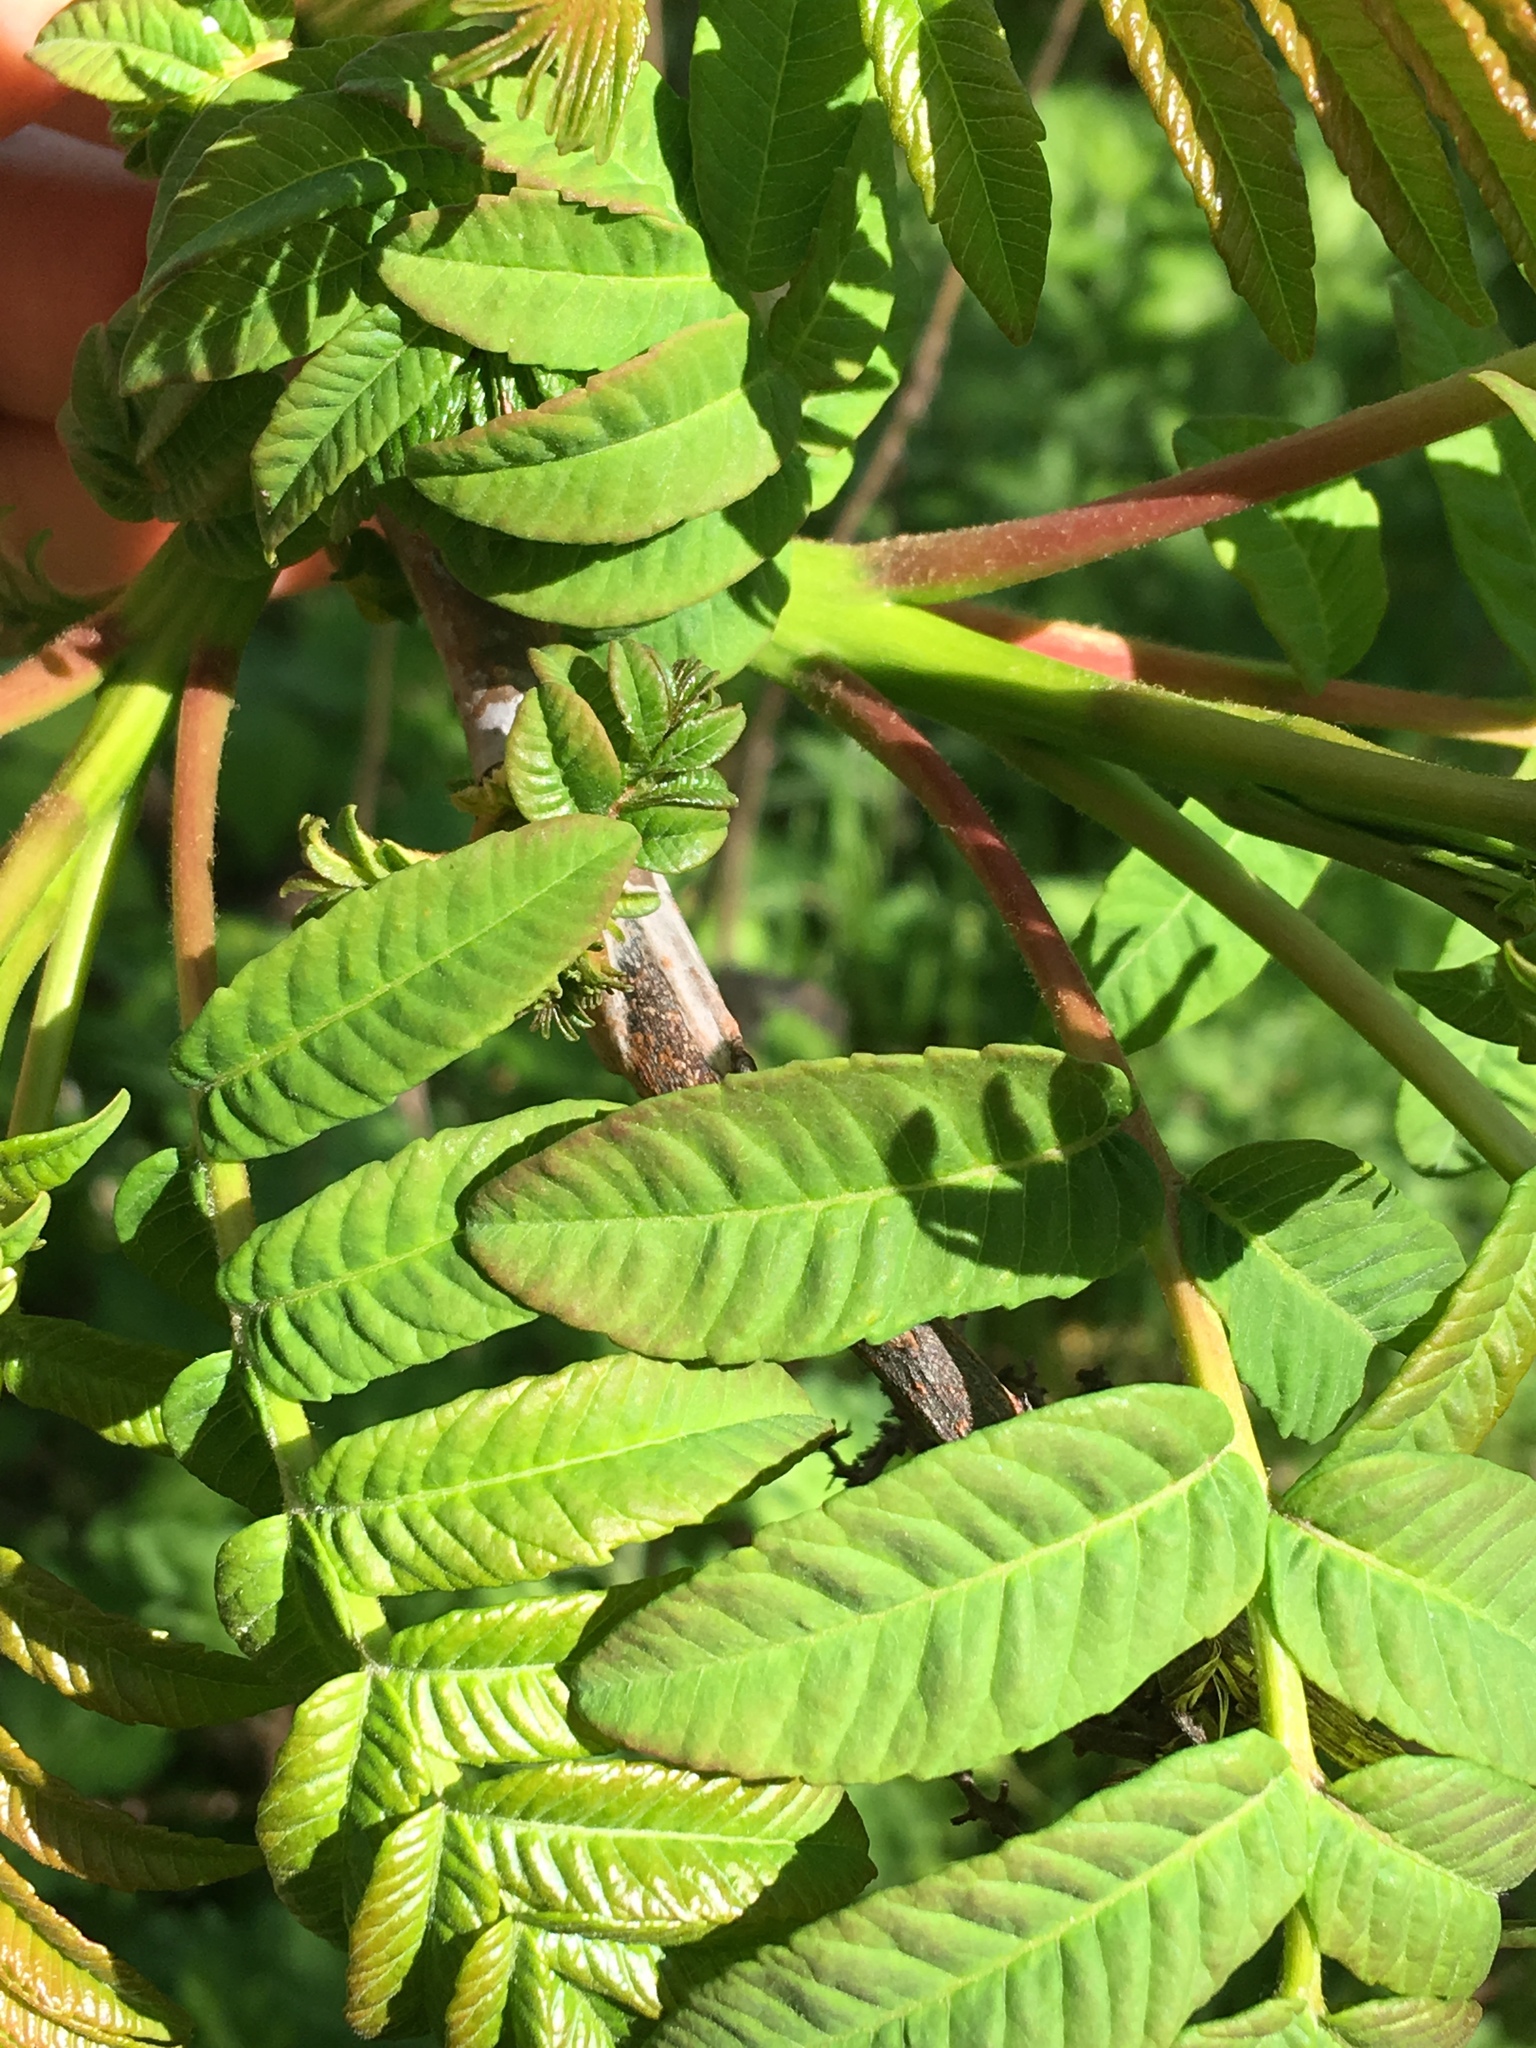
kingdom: Plantae
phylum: Tracheophyta
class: Magnoliopsida
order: Sapindales
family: Anacardiaceae
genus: Rhus
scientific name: Rhus glabra
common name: Scarlet sumac
